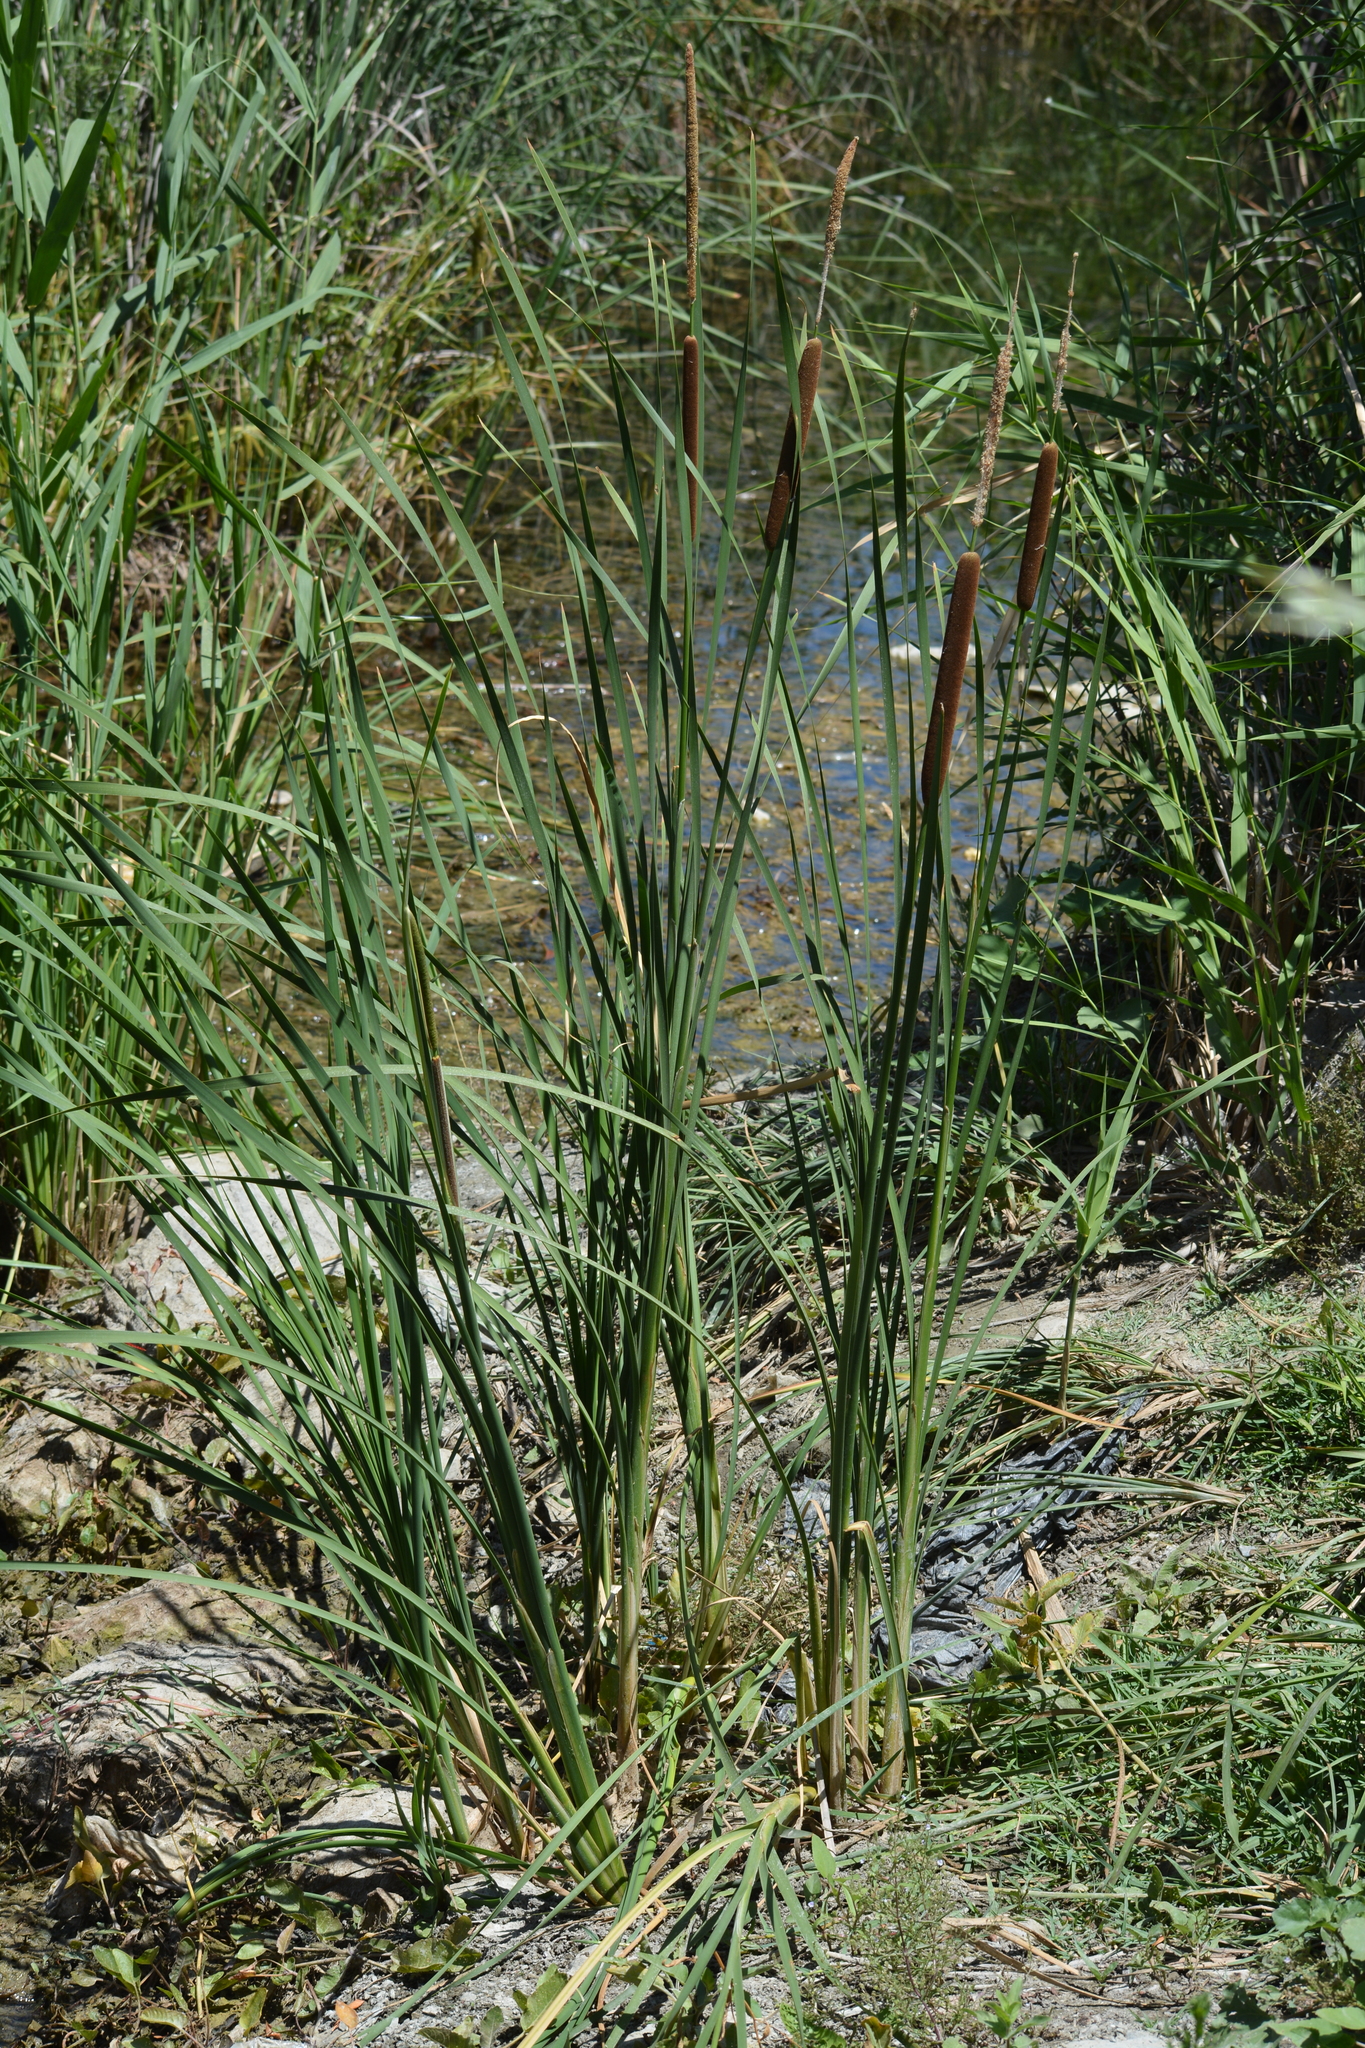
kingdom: Plantae
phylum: Tracheophyta
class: Liliopsida
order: Poales
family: Typhaceae
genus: Typha
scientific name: Typha angustifolia
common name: Lesser bulrush
